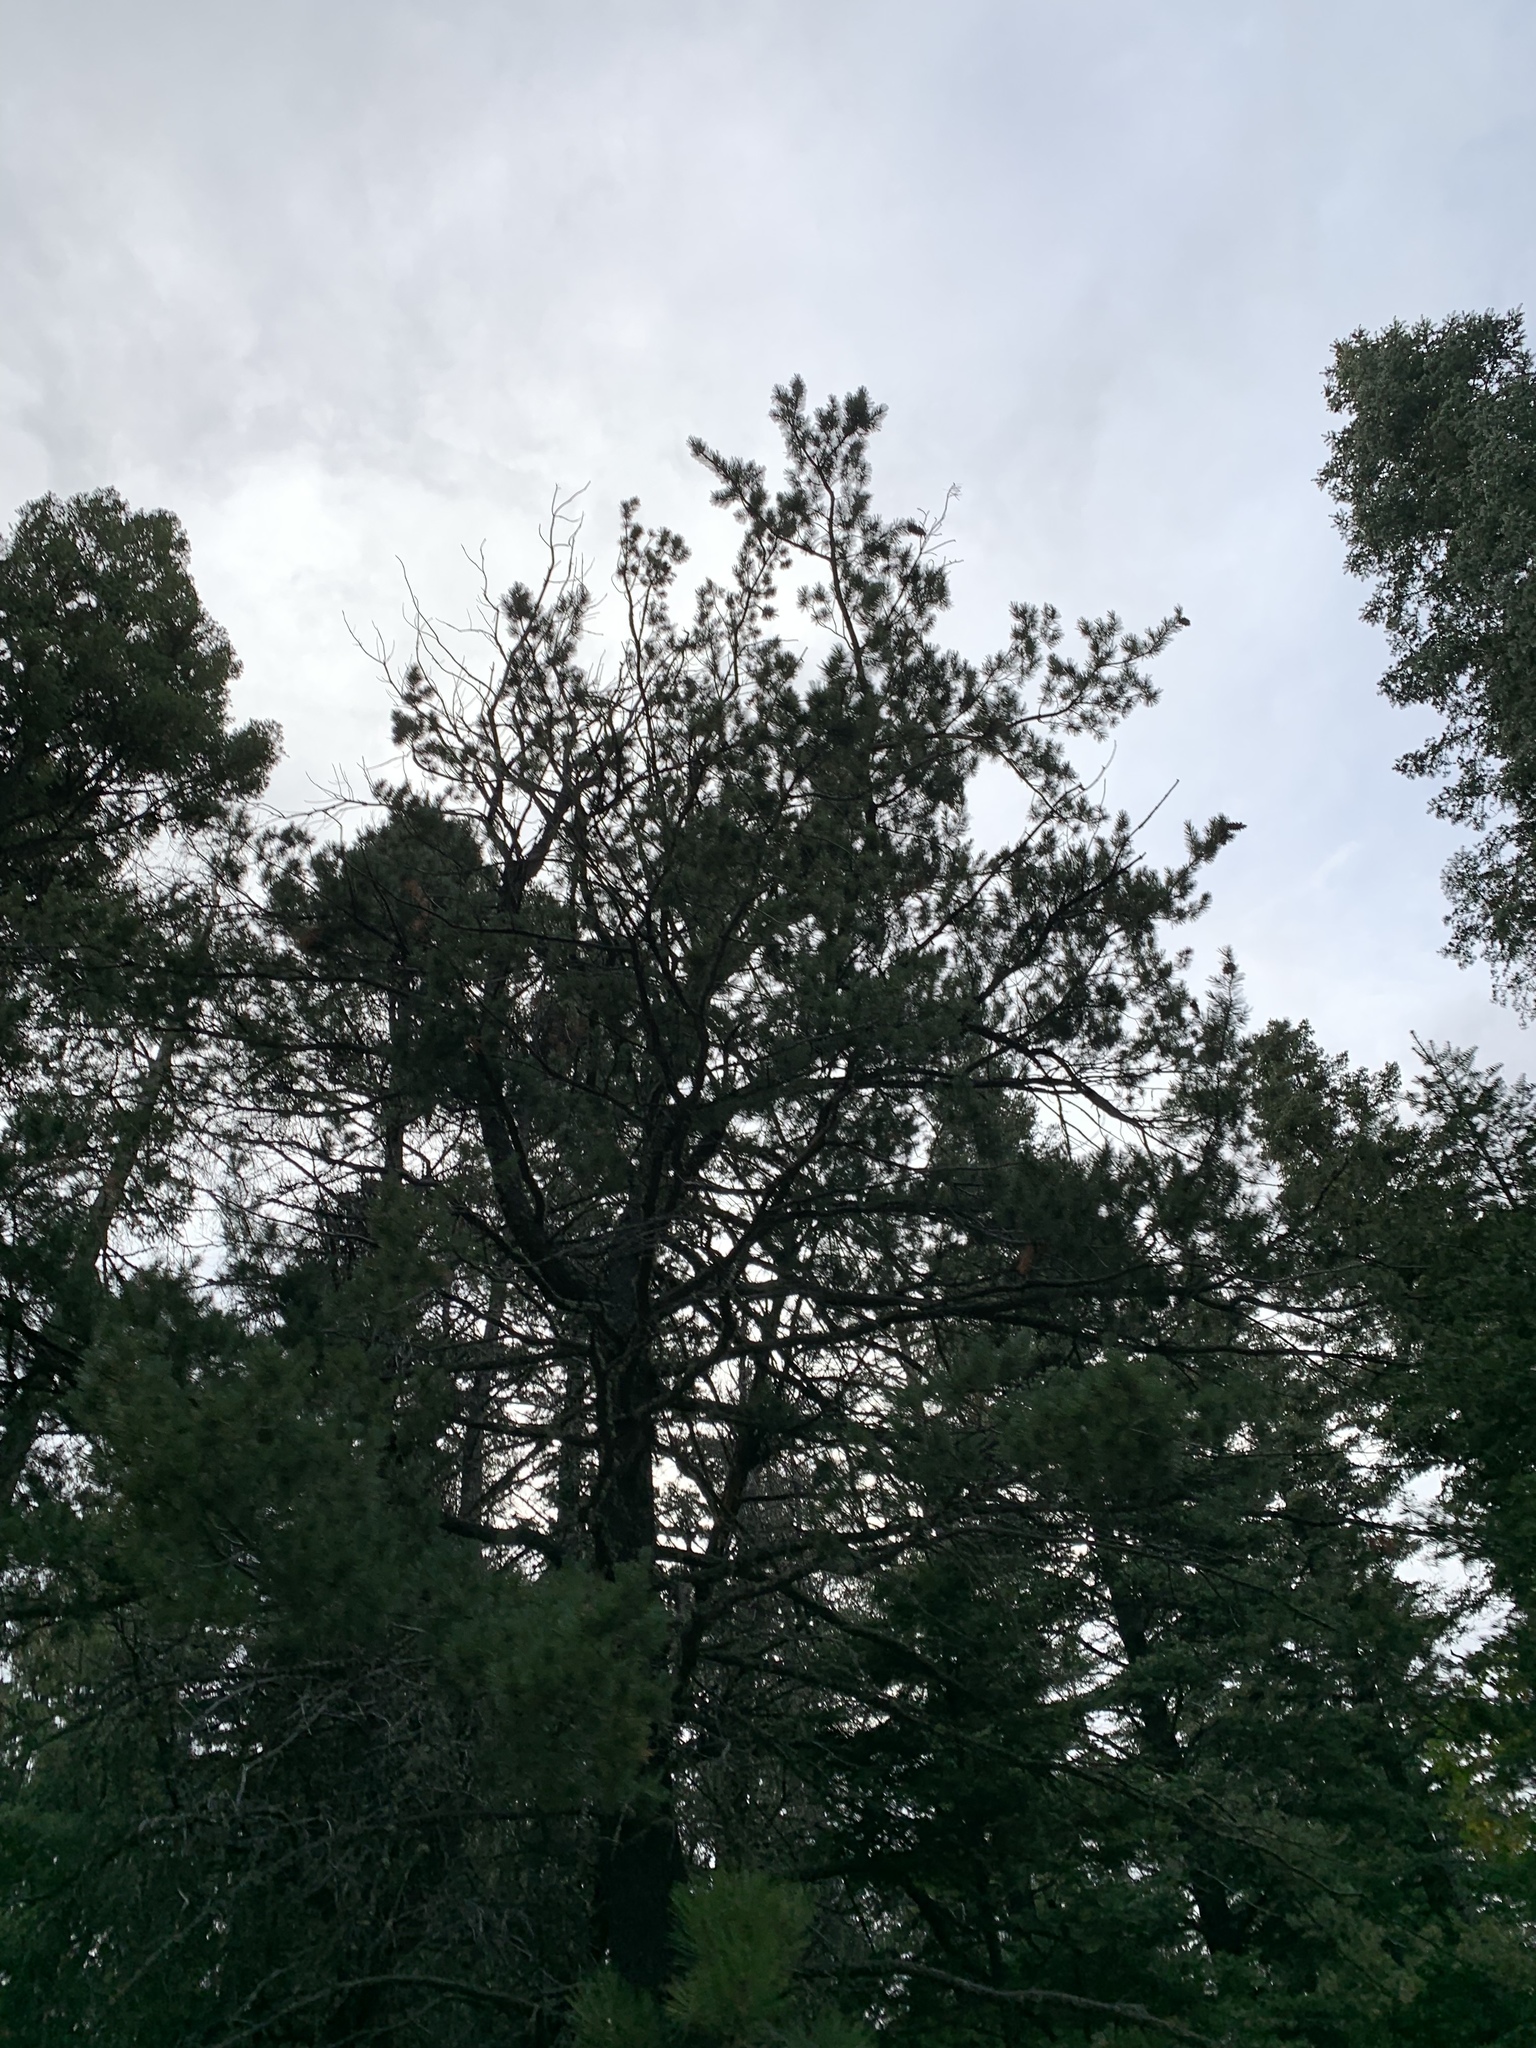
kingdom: Plantae
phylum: Tracheophyta
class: Pinopsida
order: Pinales
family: Pinaceae
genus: Pinus
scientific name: Pinus strobiformis
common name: Southwestern white pine
